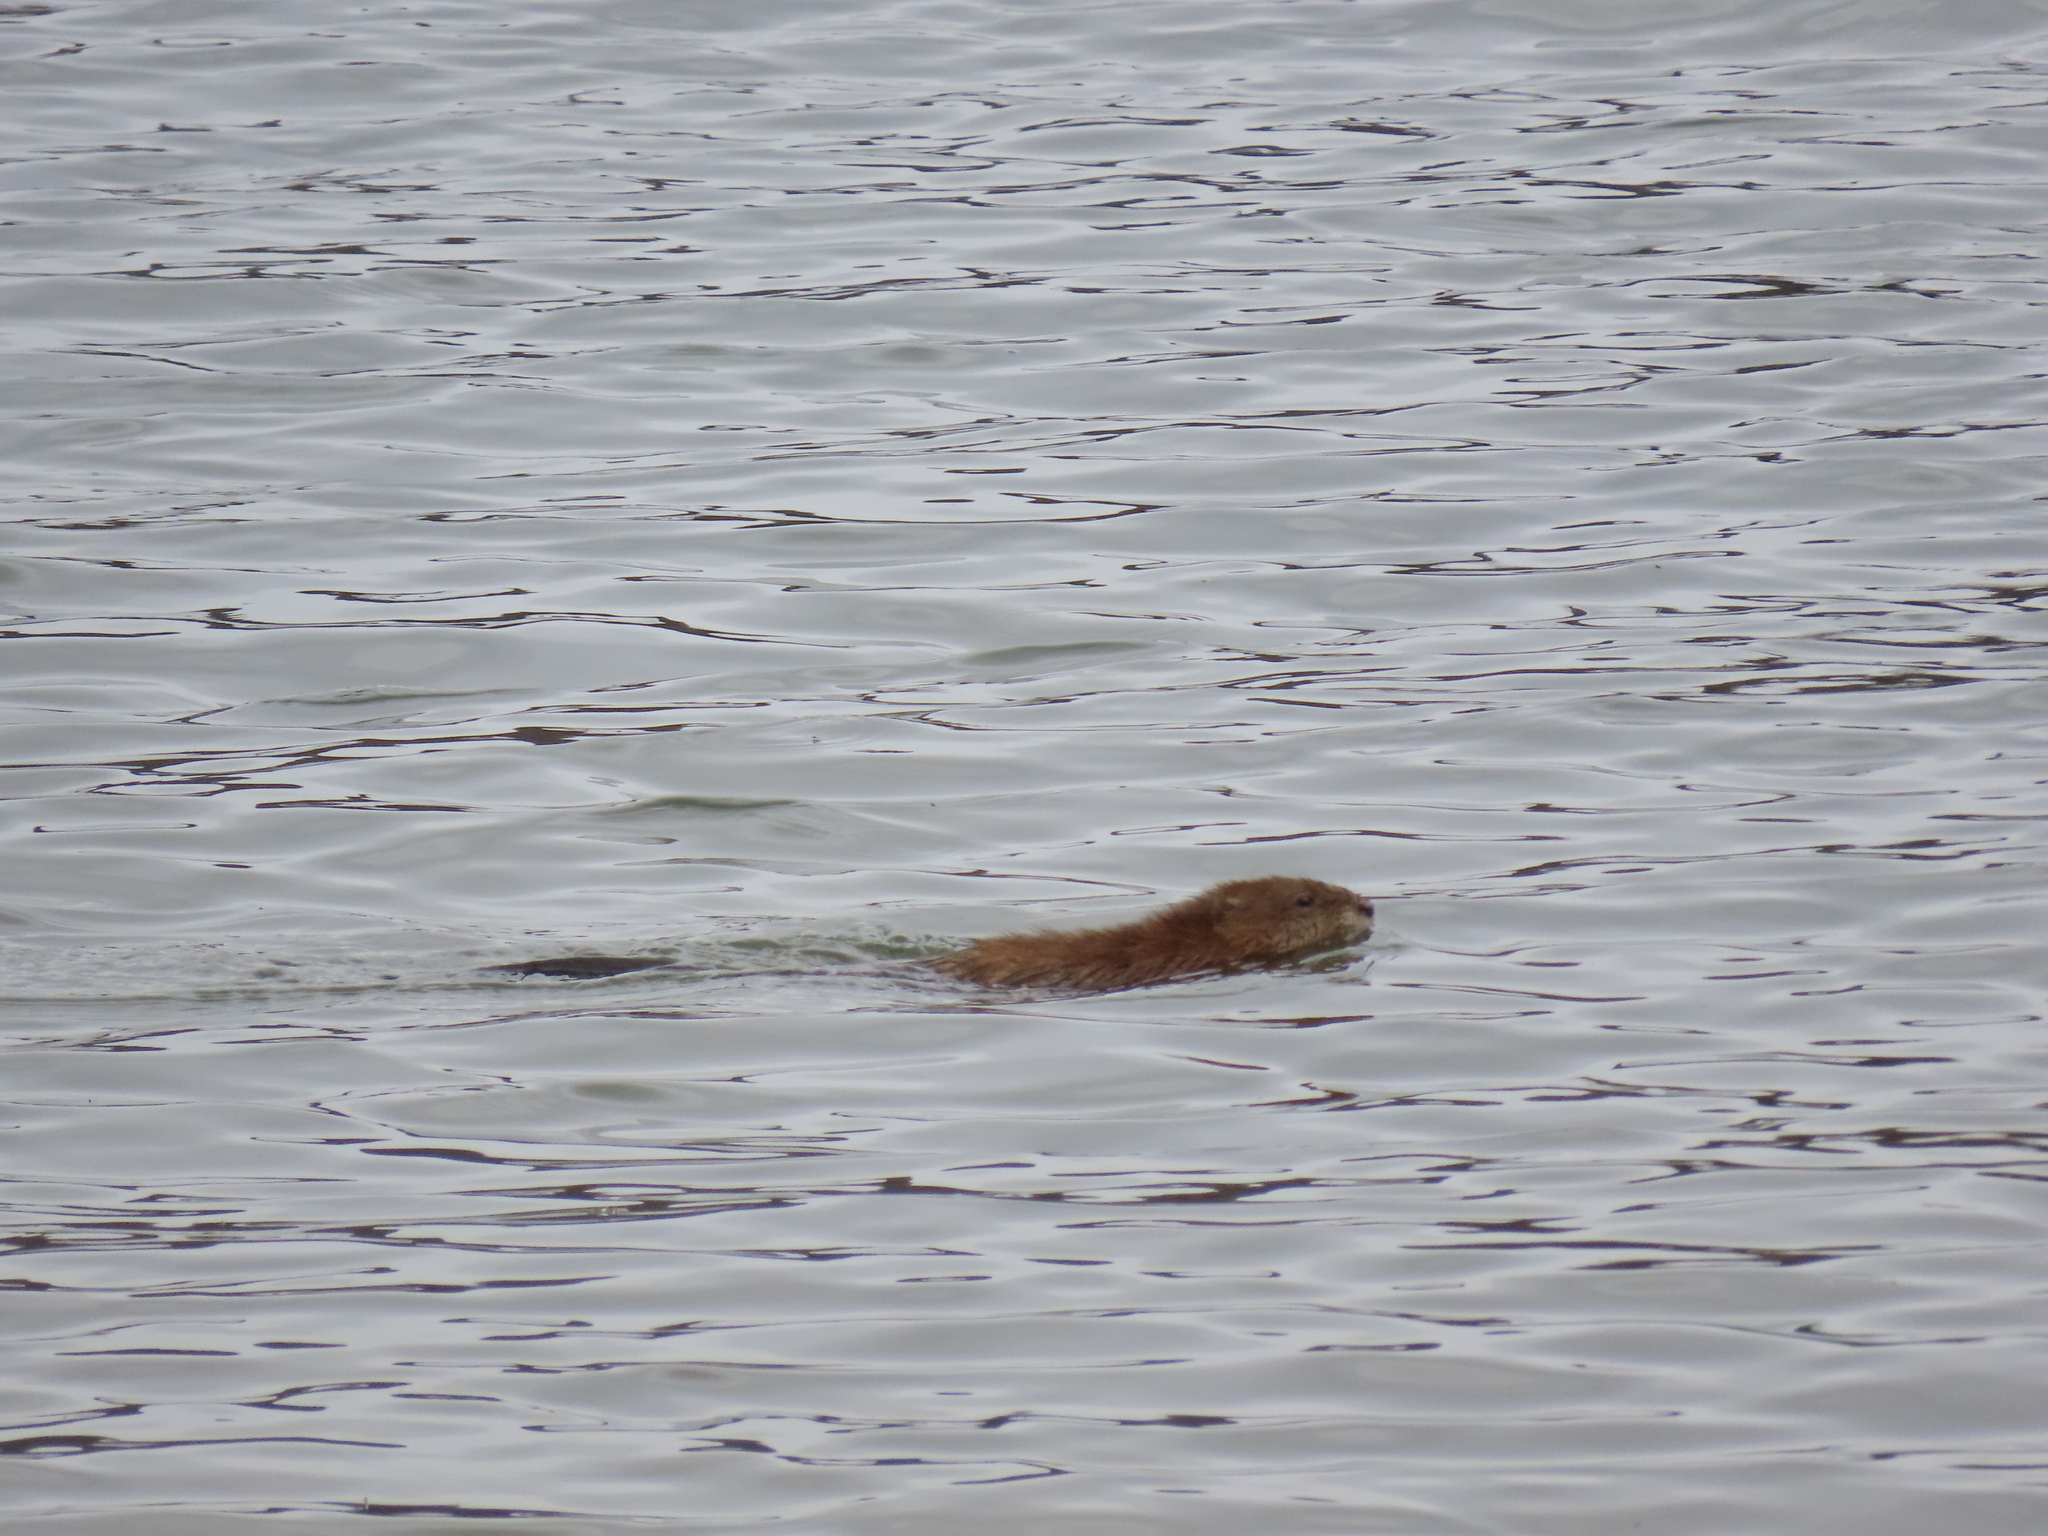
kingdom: Animalia
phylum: Chordata
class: Mammalia
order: Rodentia
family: Cricetidae
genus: Ondatra
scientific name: Ondatra zibethicus
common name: Muskrat
